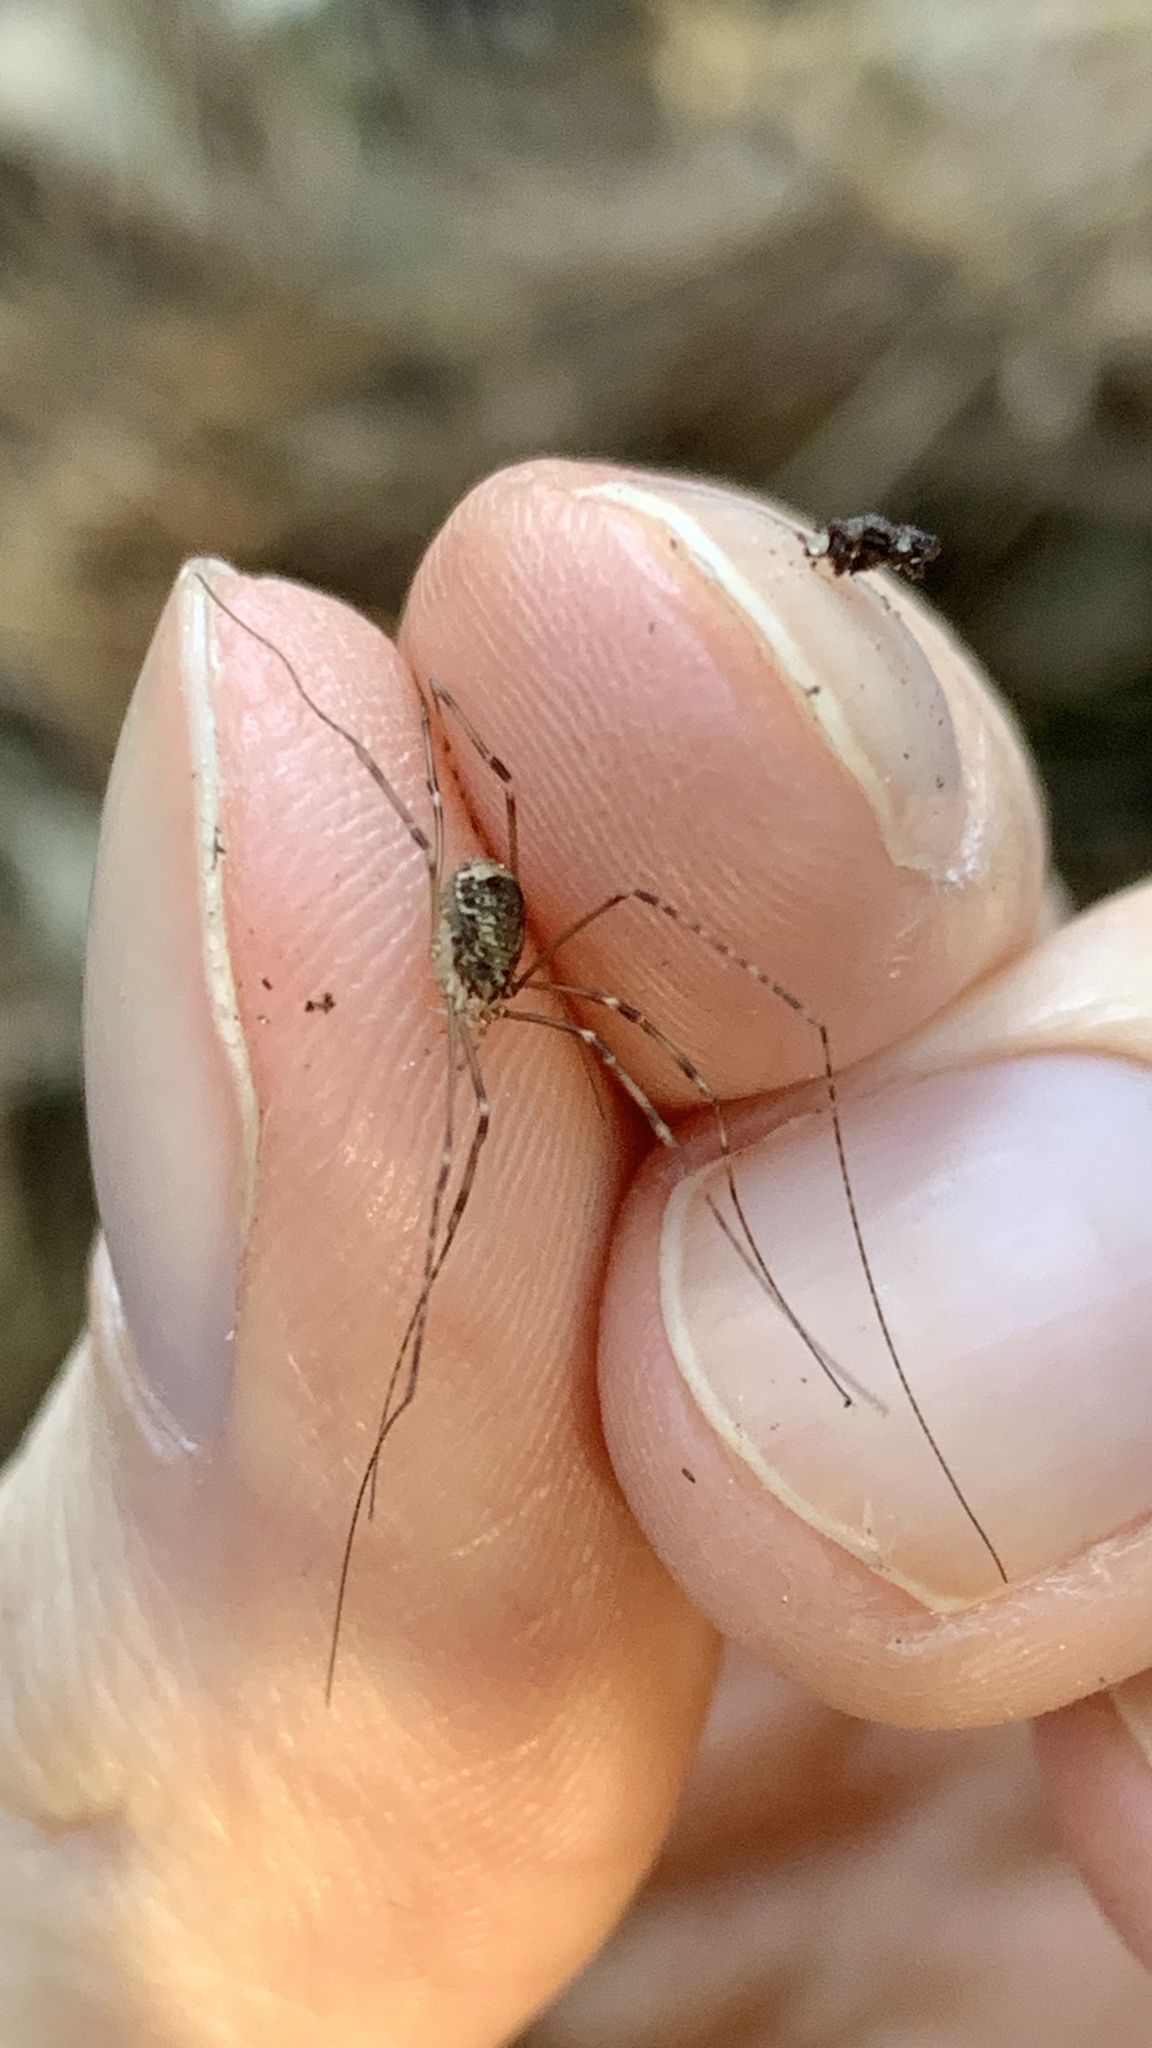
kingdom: Animalia
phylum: Arthropoda
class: Arachnida
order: Opiliones
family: Sclerosomatidae
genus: Leiobunum
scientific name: Leiobunum blackwalli
